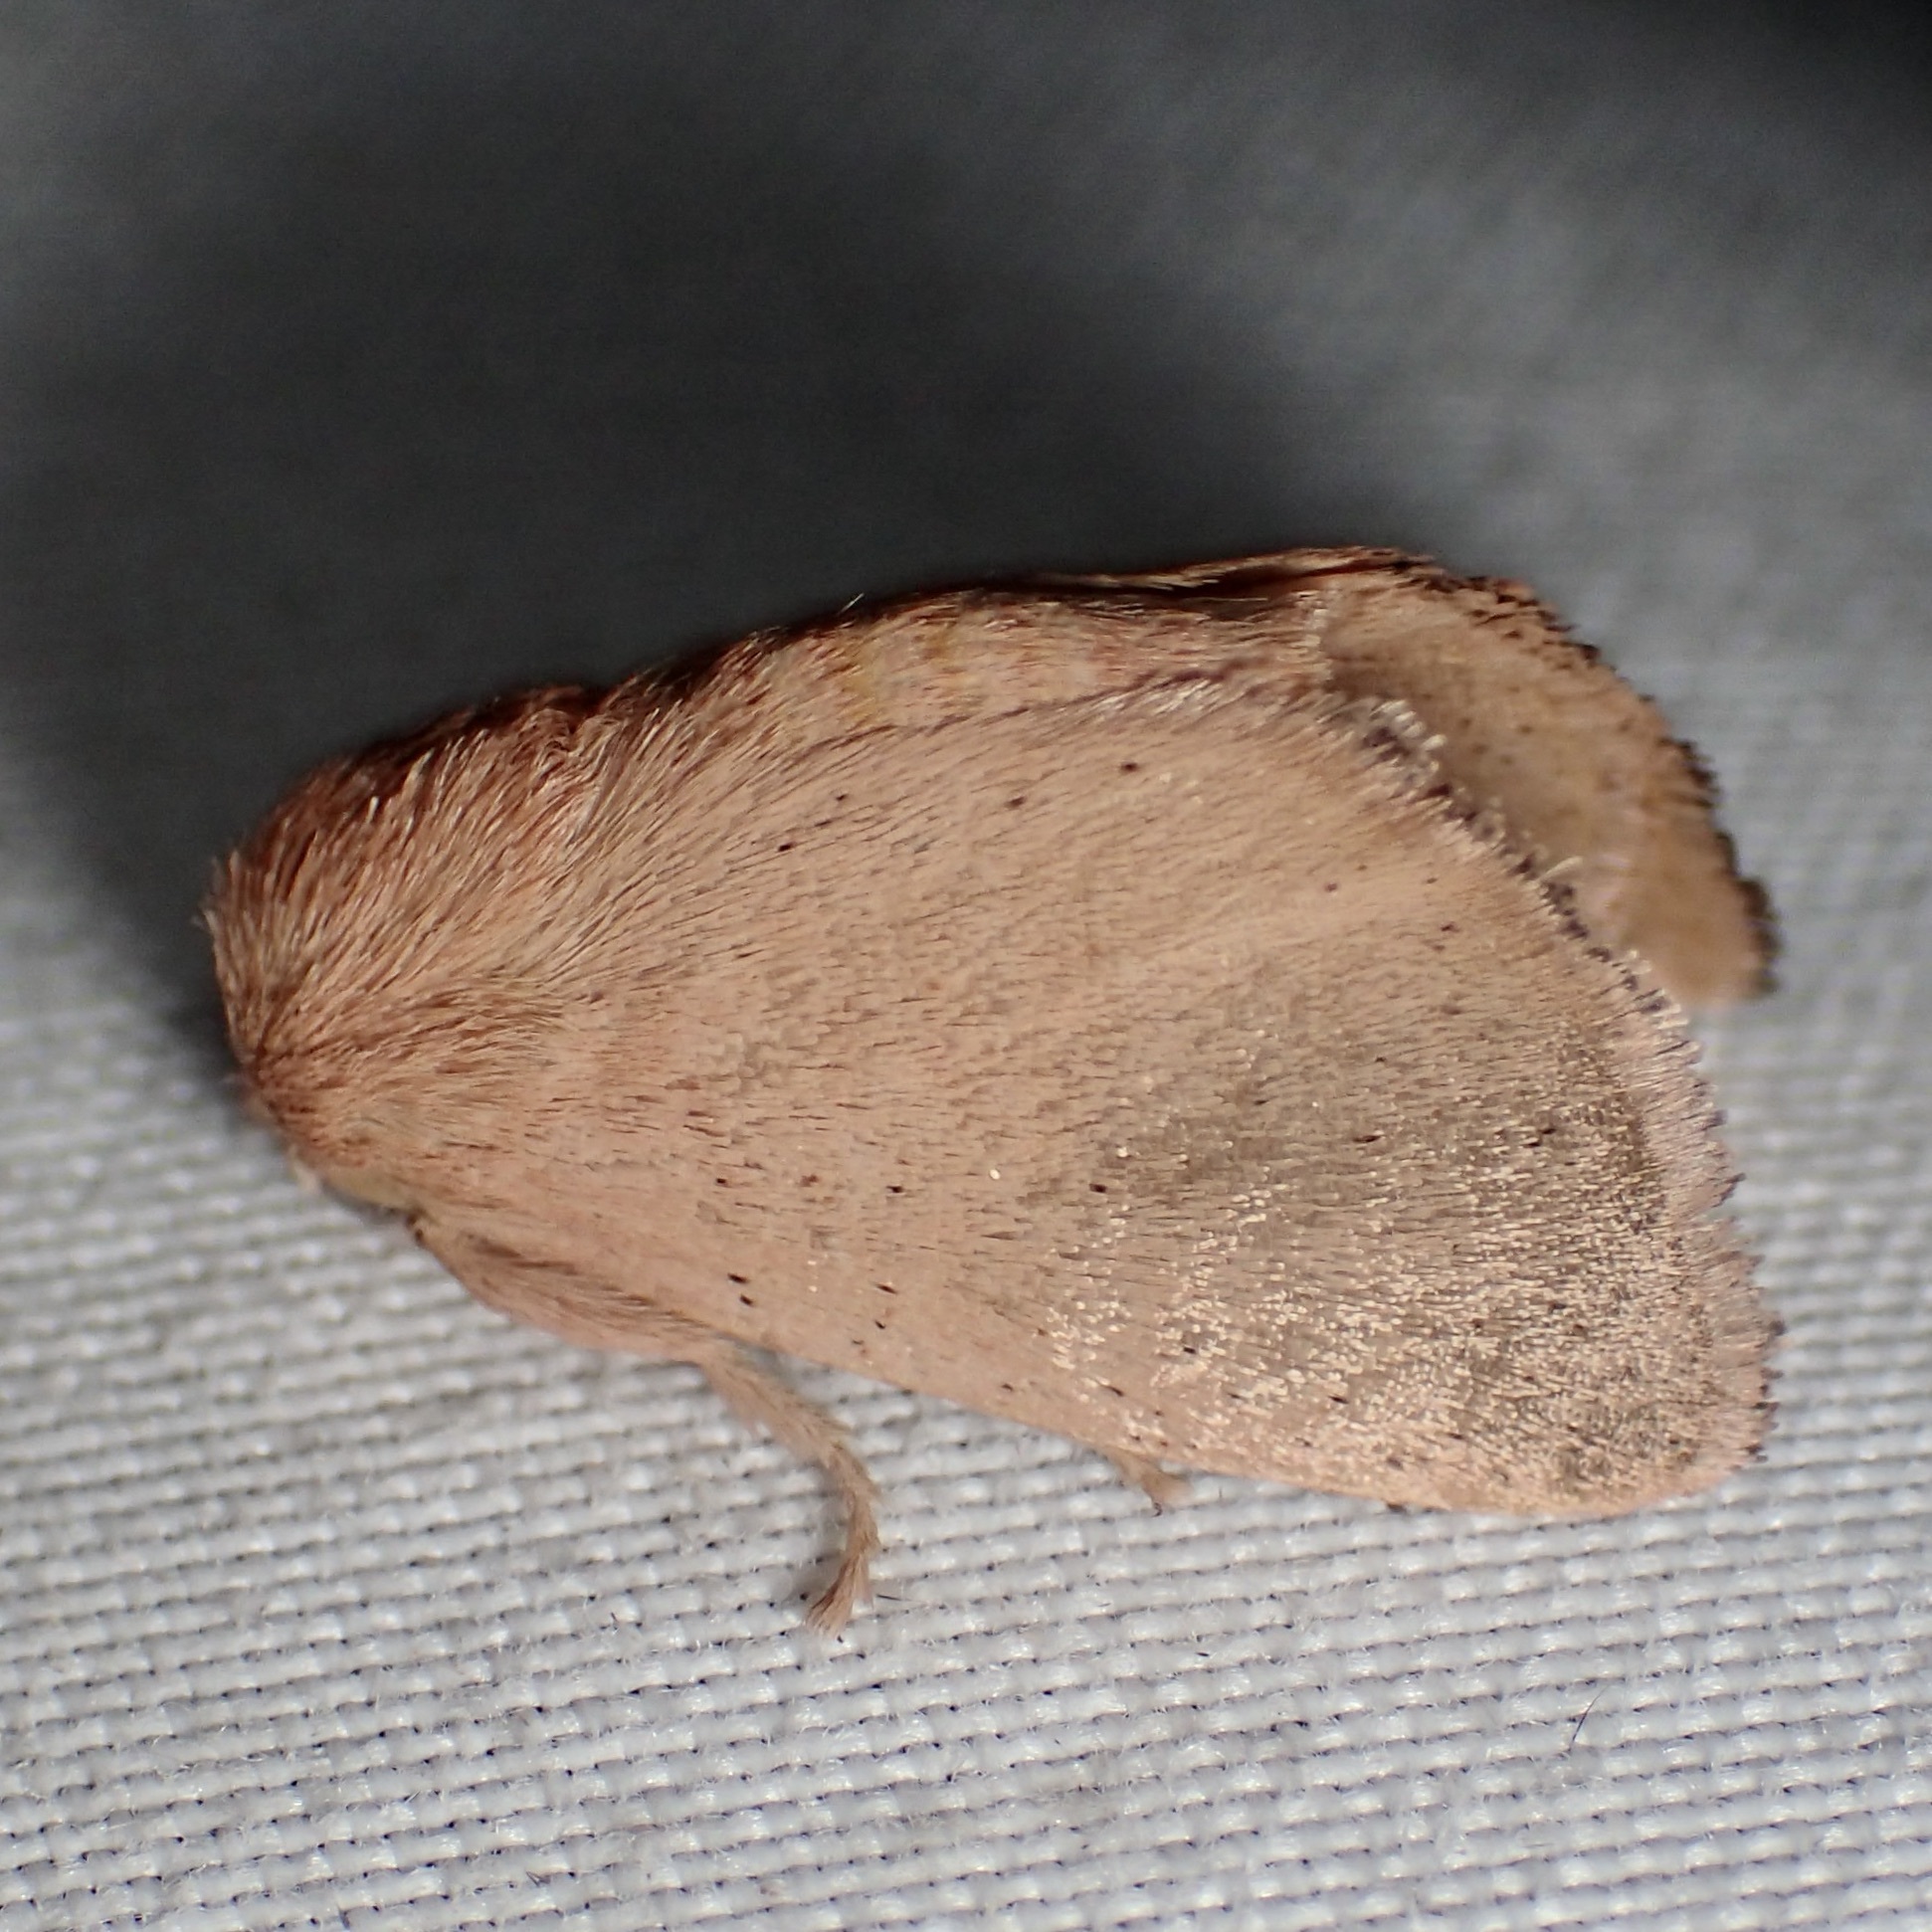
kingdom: Animalia
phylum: Arthropoda
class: Insecta
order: Lepidoptera
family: Limacodidae
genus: Isa
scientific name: Isa schaefferana
